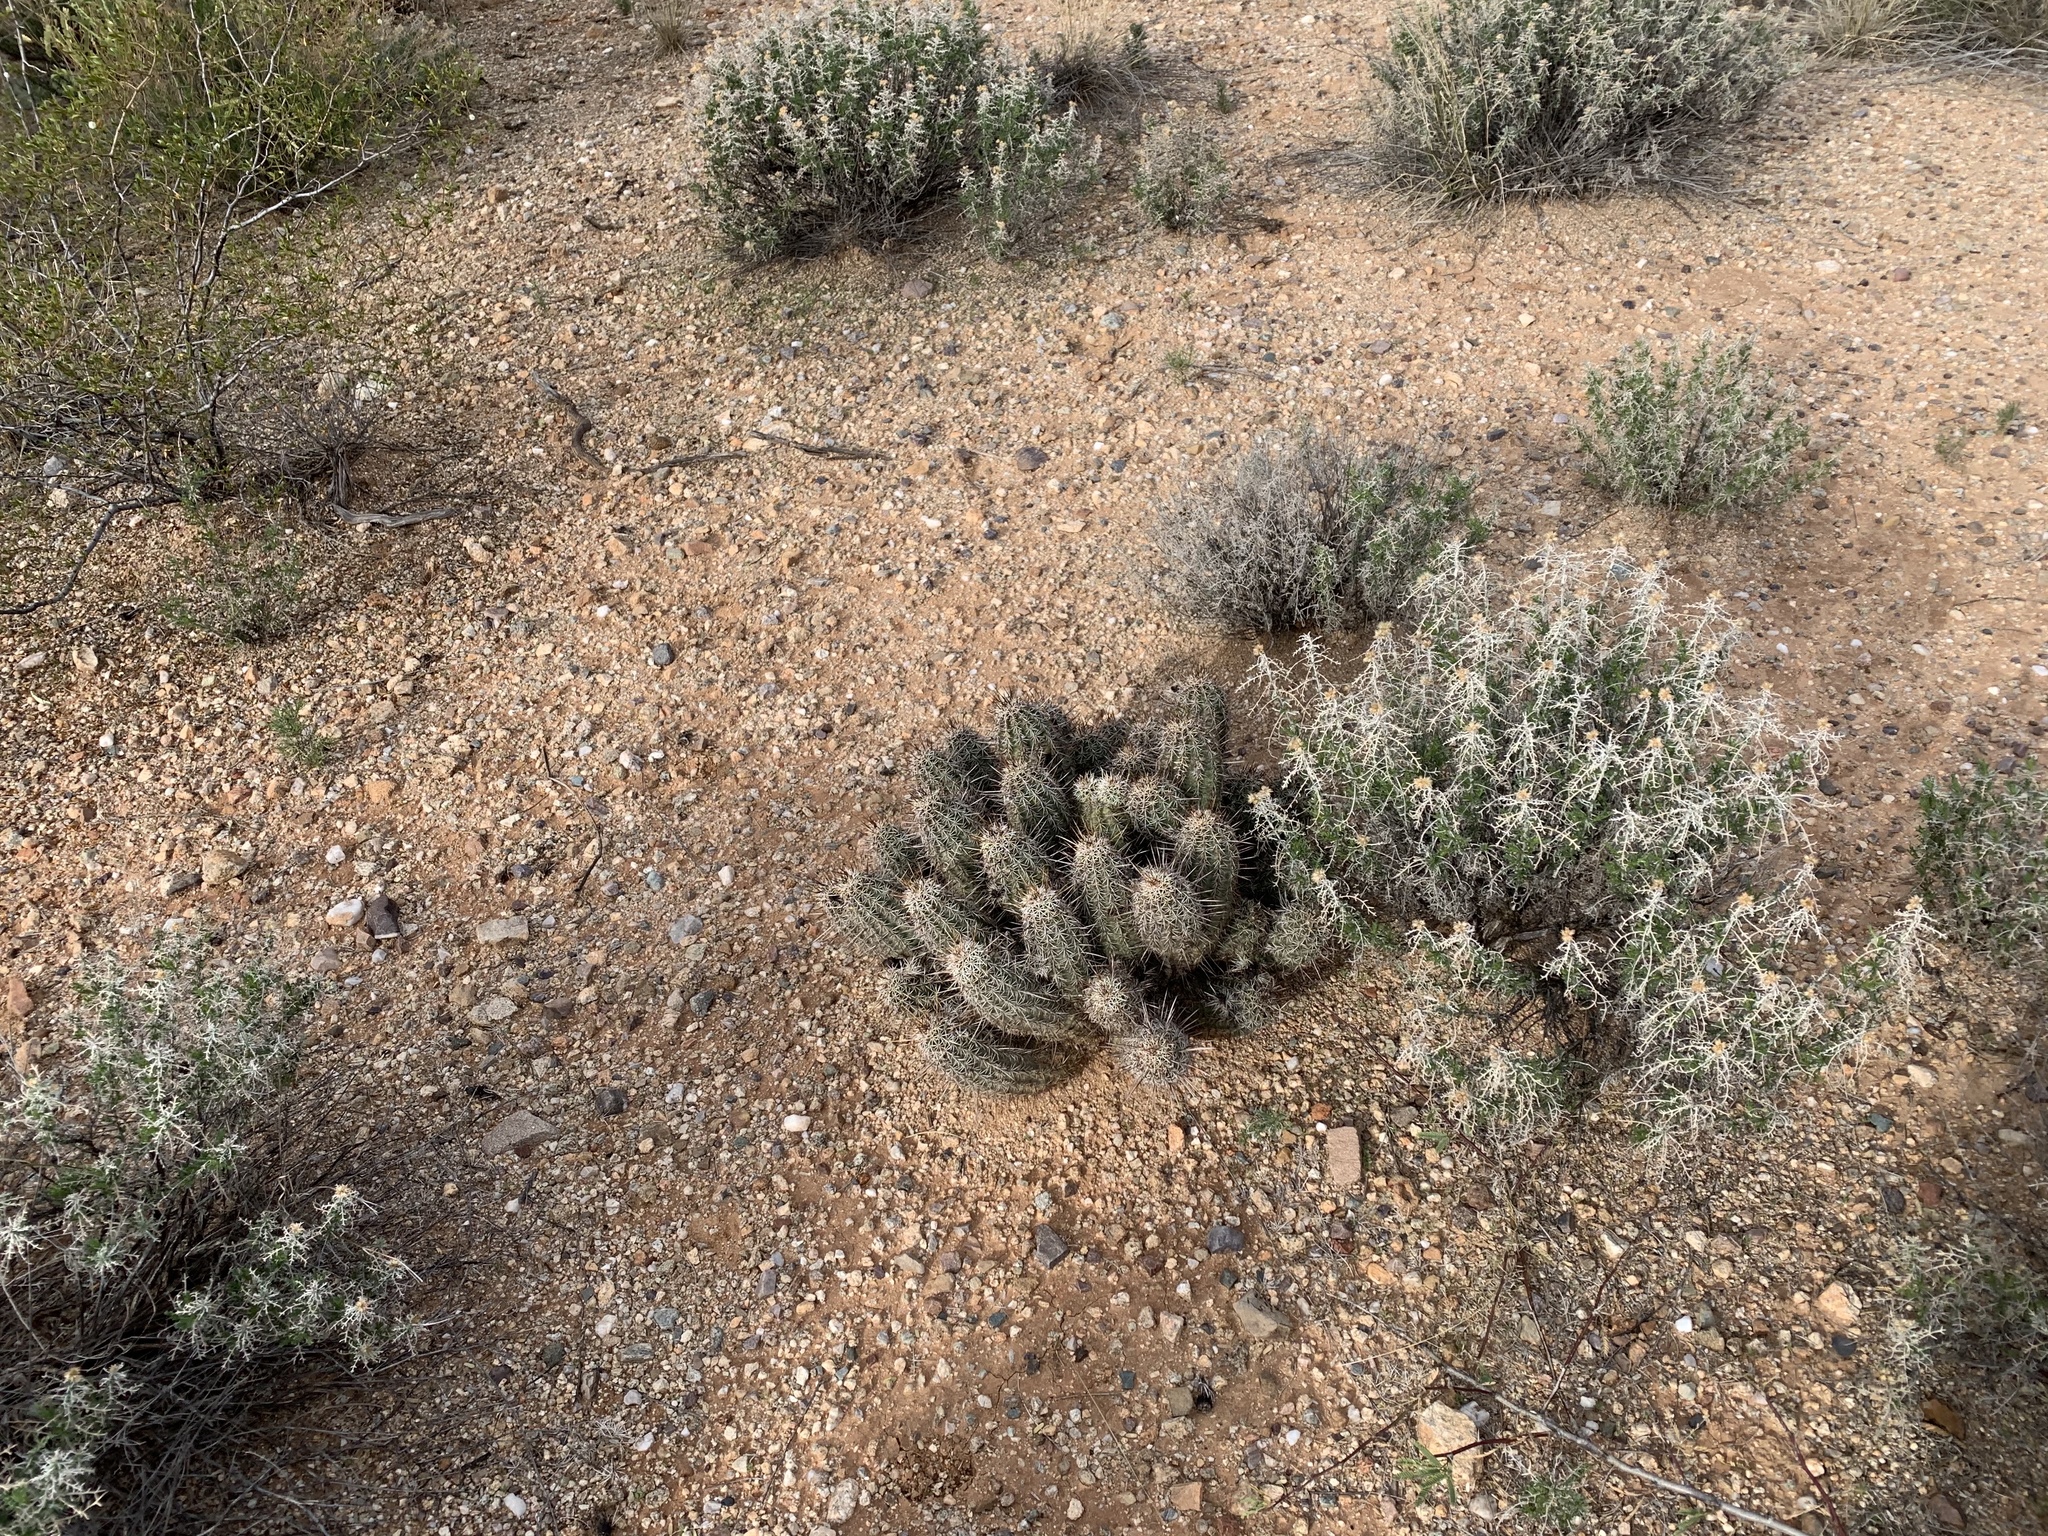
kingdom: Plantae
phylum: Tracheophyta
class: Magnoliopsida
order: Caryophyllales
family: Cactaceae
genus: Echinocereus
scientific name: Echinocereus fasciculatus
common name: Bundle hedgehog
